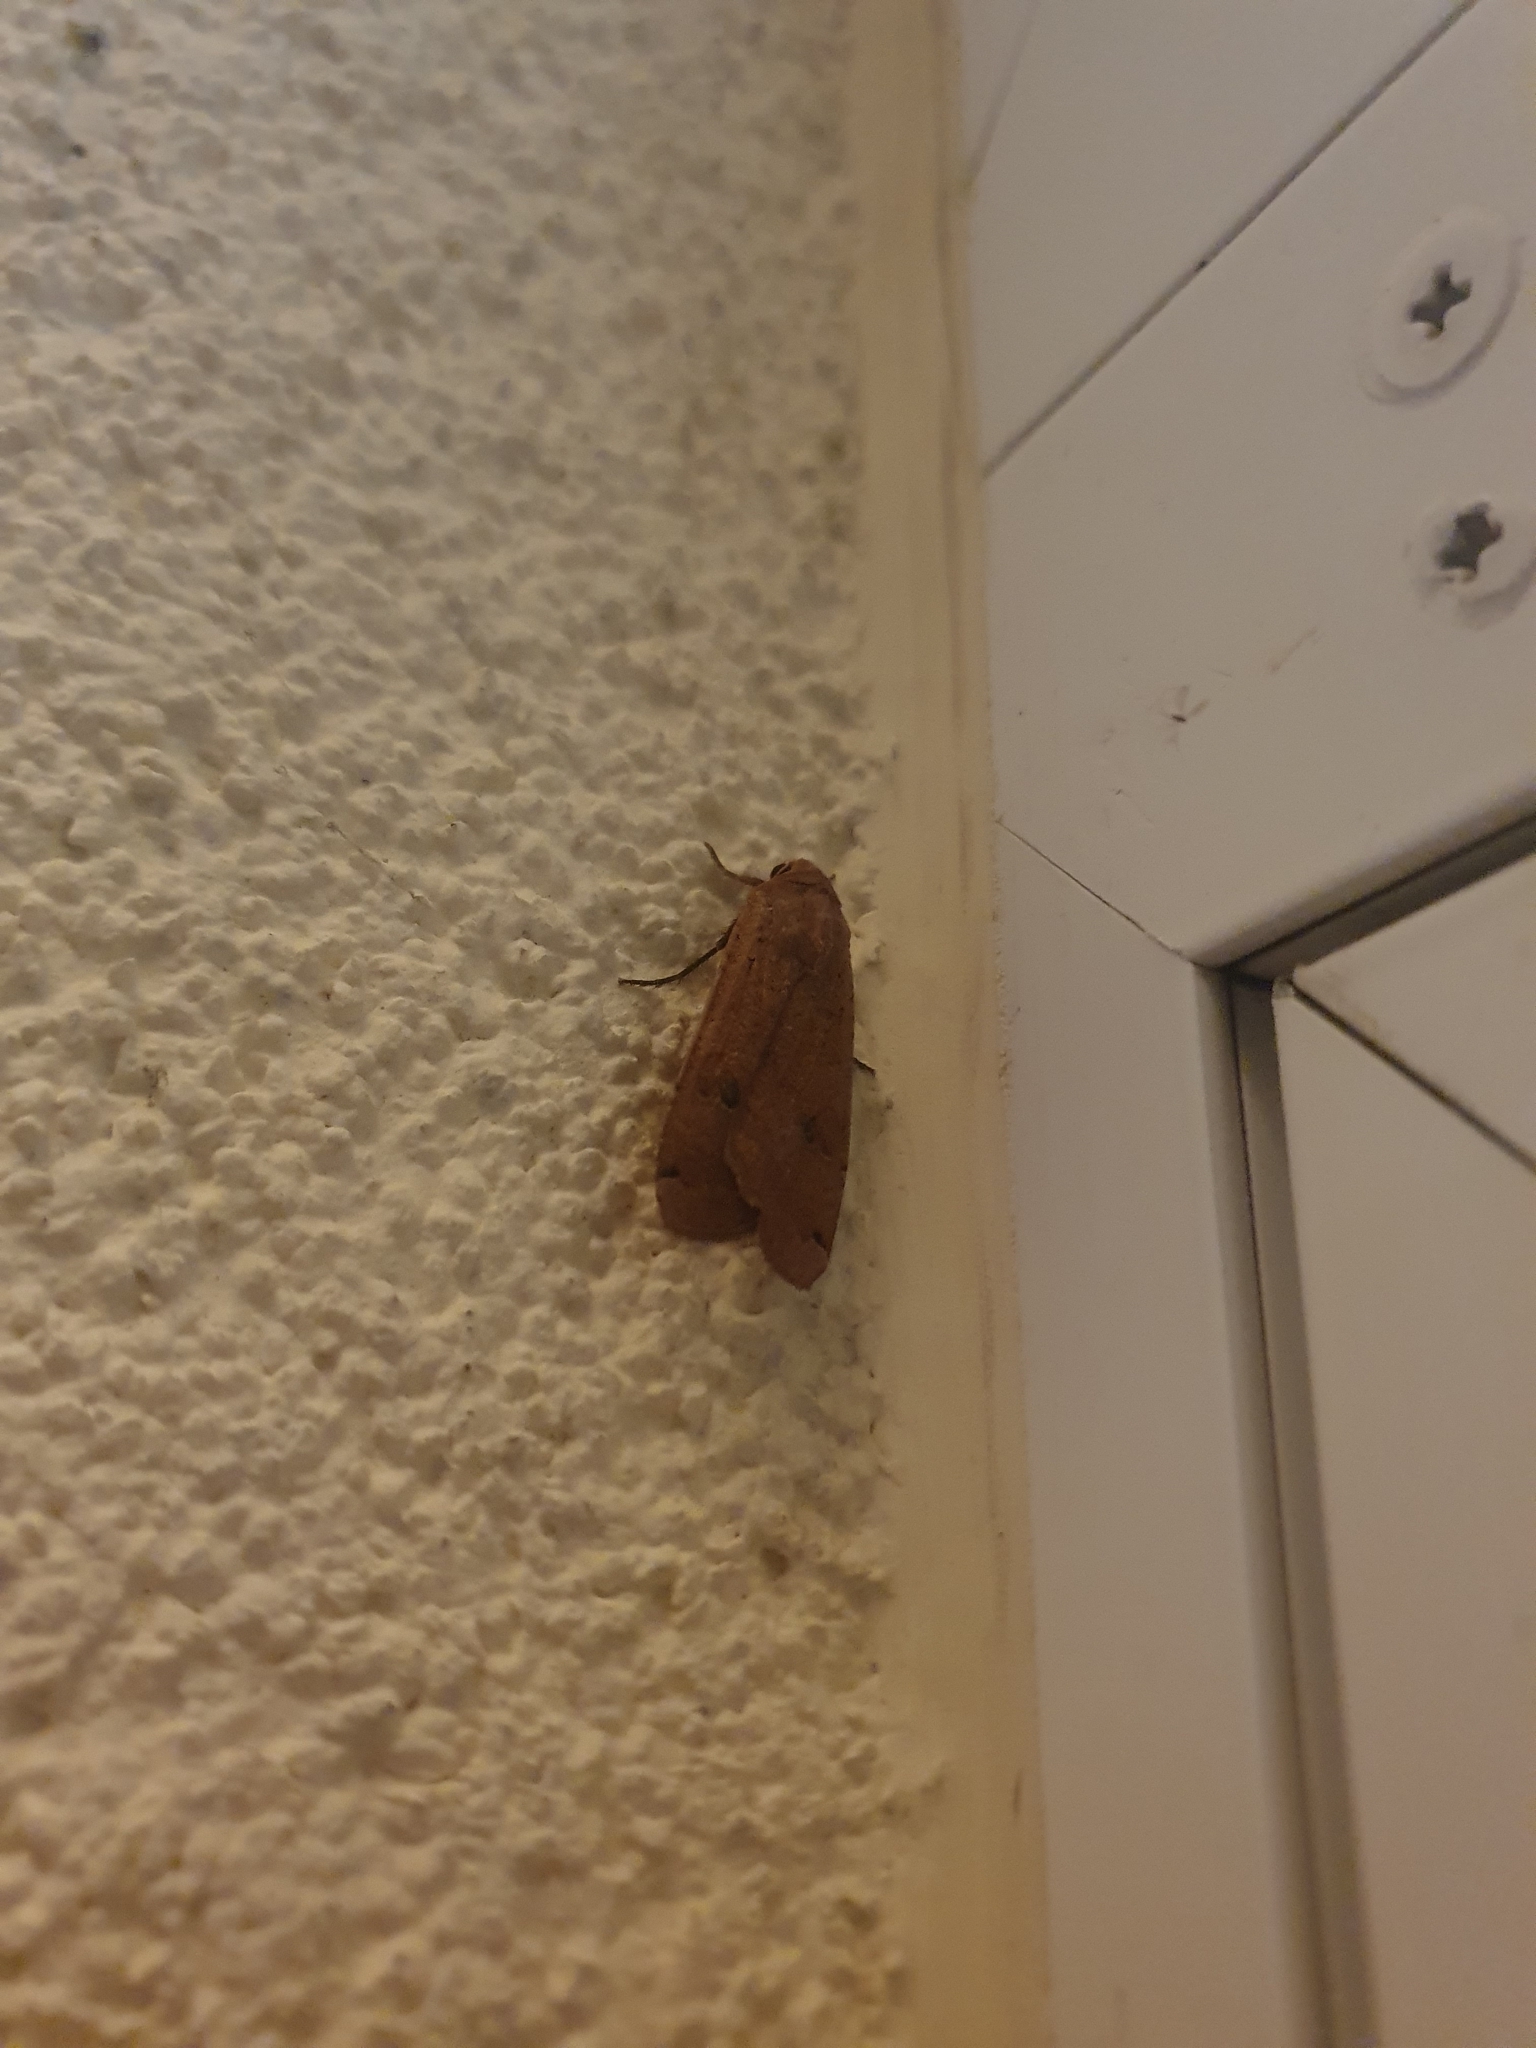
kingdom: Animalia
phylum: Arthropoda
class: Insecta
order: Lepidoptera
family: Noctuidae
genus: Noctua
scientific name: Noctua pronuba
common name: Large yellow underwing
